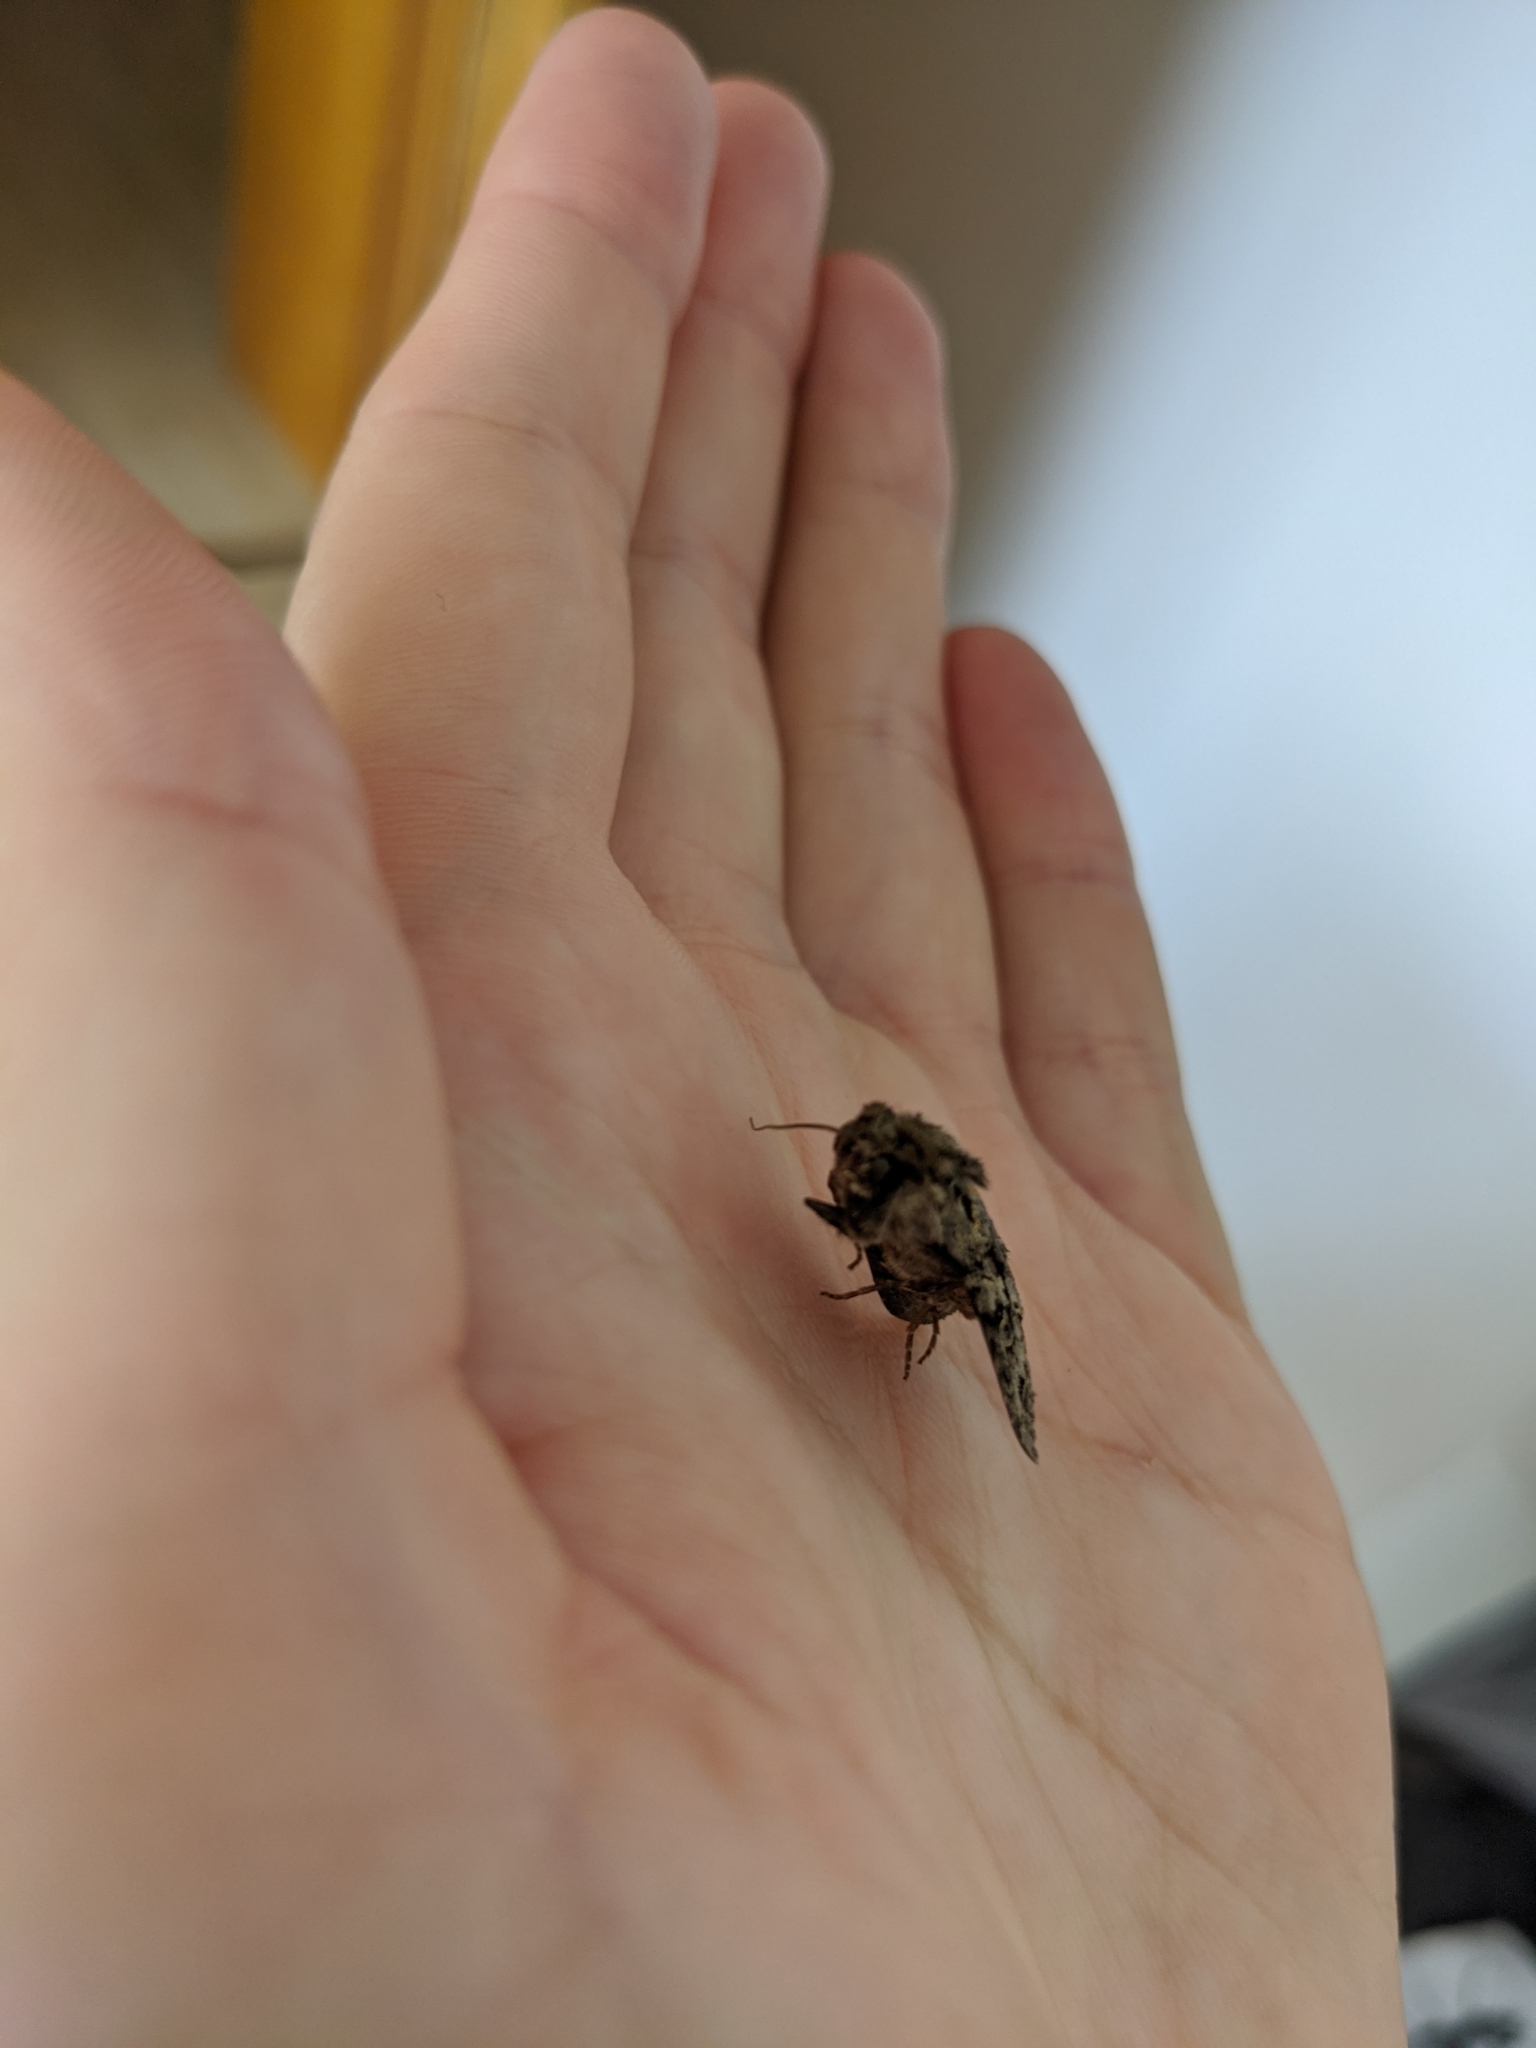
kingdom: Animalia
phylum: Arthropoda
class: Insecta
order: Lepidoptera
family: Noctuidae
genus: Hada
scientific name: Hada plebeja
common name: Shears
